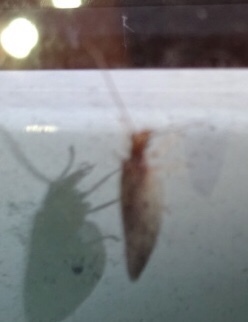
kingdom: Animalia
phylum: Arthropoda
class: Insecta
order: Neuroptera
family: Hemerobiidae
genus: Micromus
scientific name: Micromus subanticus
